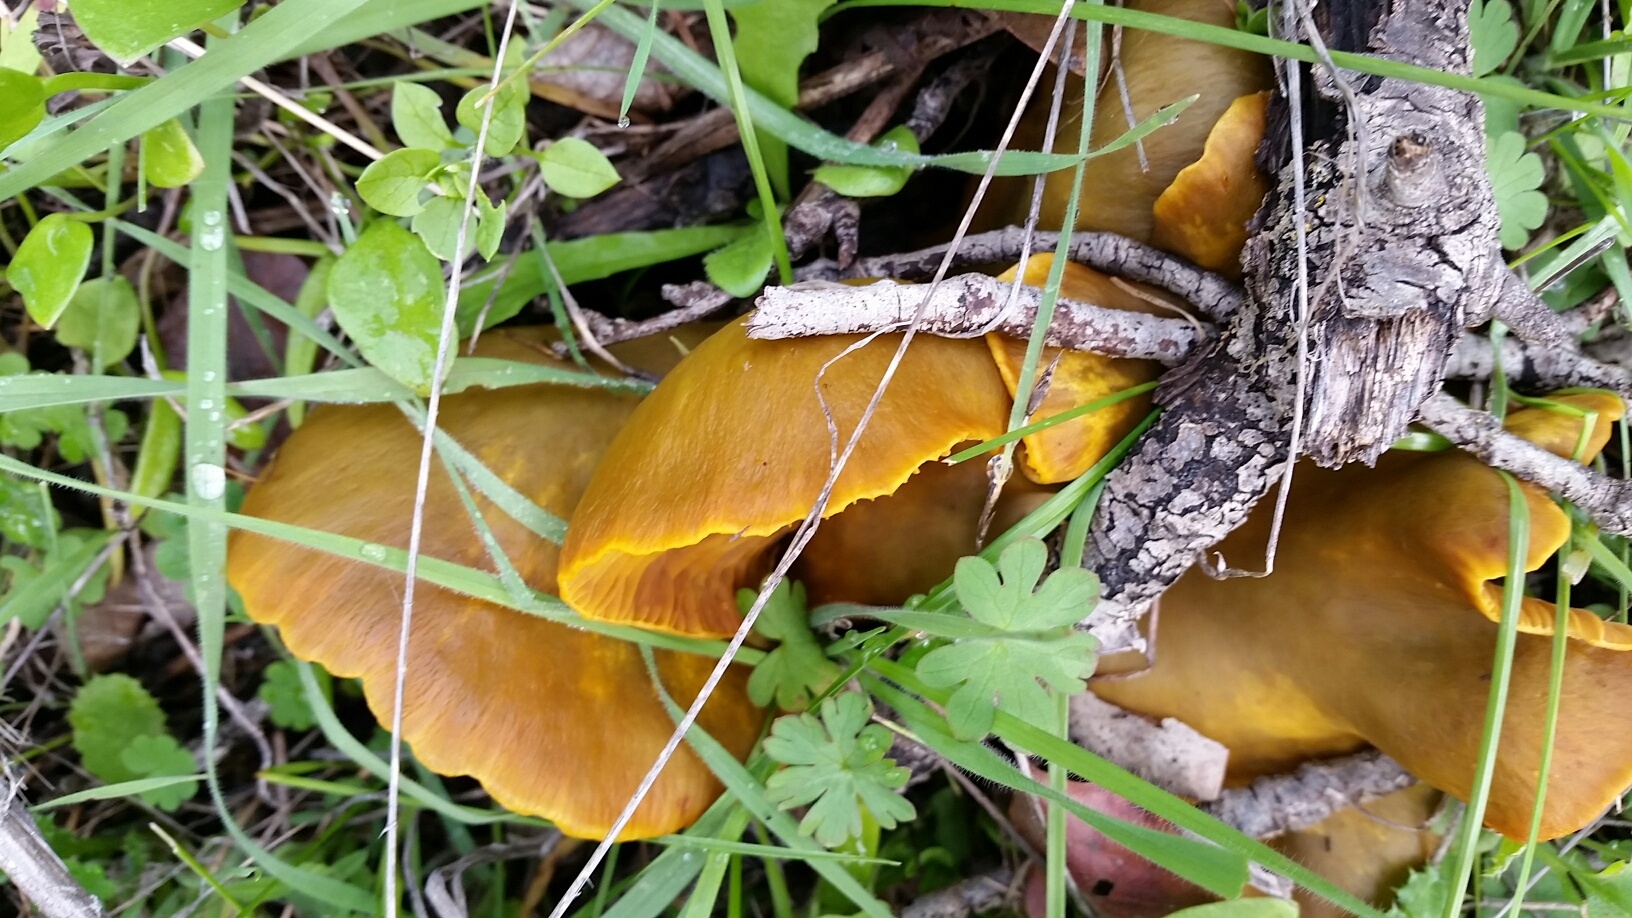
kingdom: Fungi
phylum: Basidiomycota
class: Agaricomycetes
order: Agaricales
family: Omphalotaceae
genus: Omphalotus
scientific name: Omphalotus olivascens
